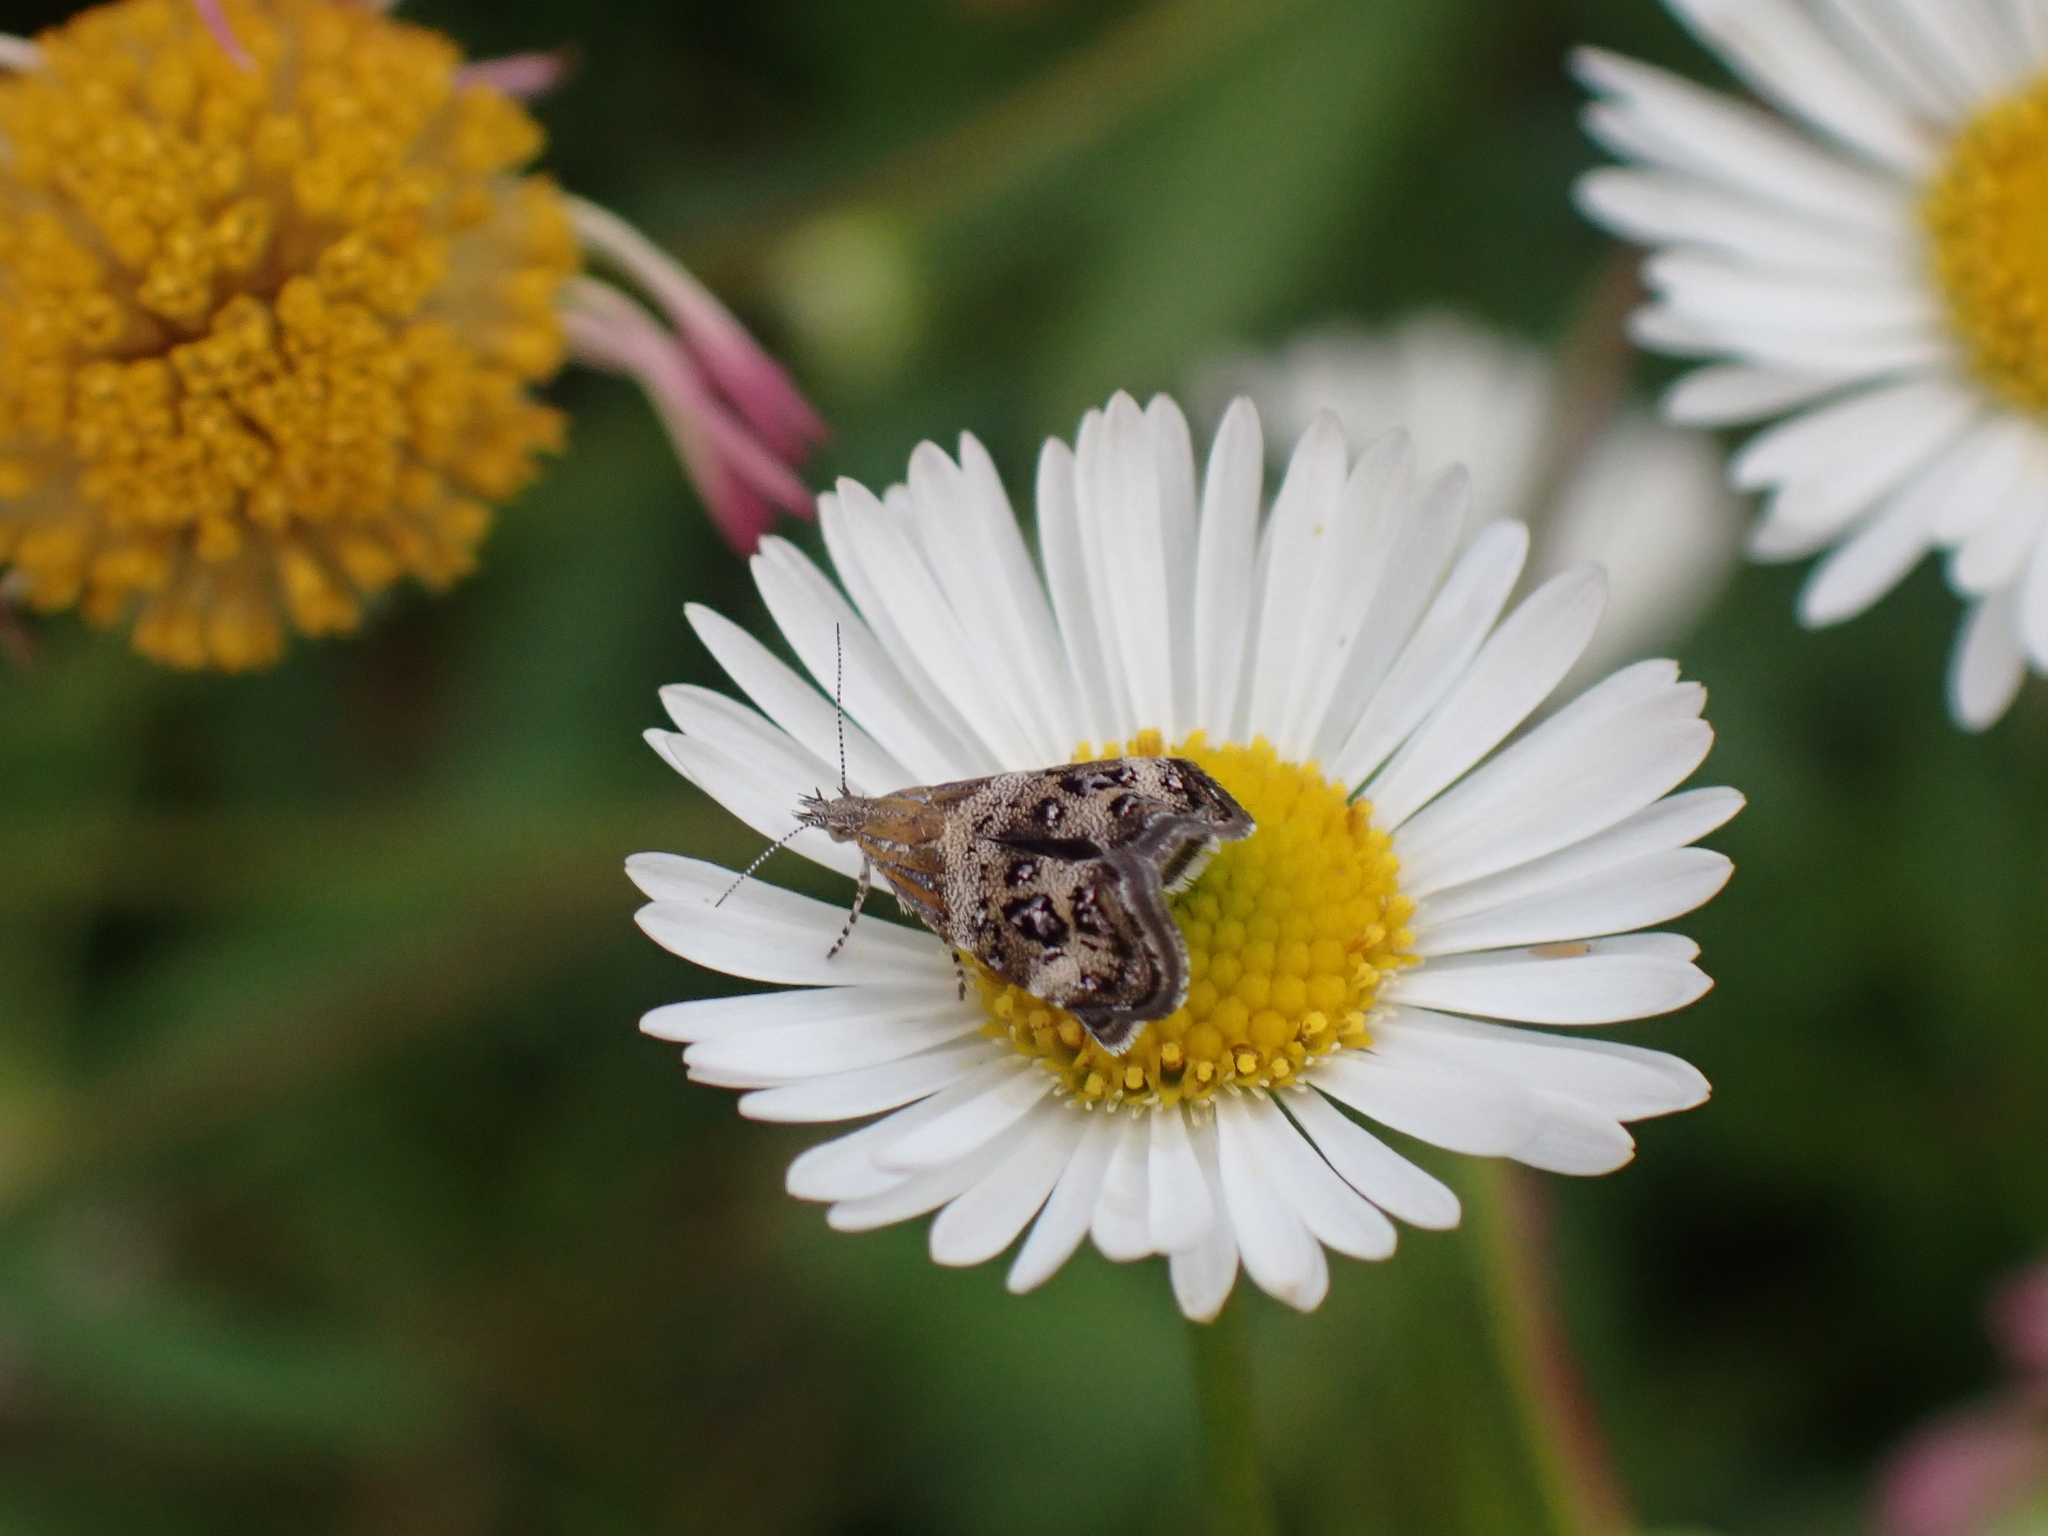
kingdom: Animalia
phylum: Arthropoda
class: Insecta
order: Lepidoptera
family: Choreutidae
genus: Tebenna
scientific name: Tebenna micalis
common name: Vagrant twitcher
